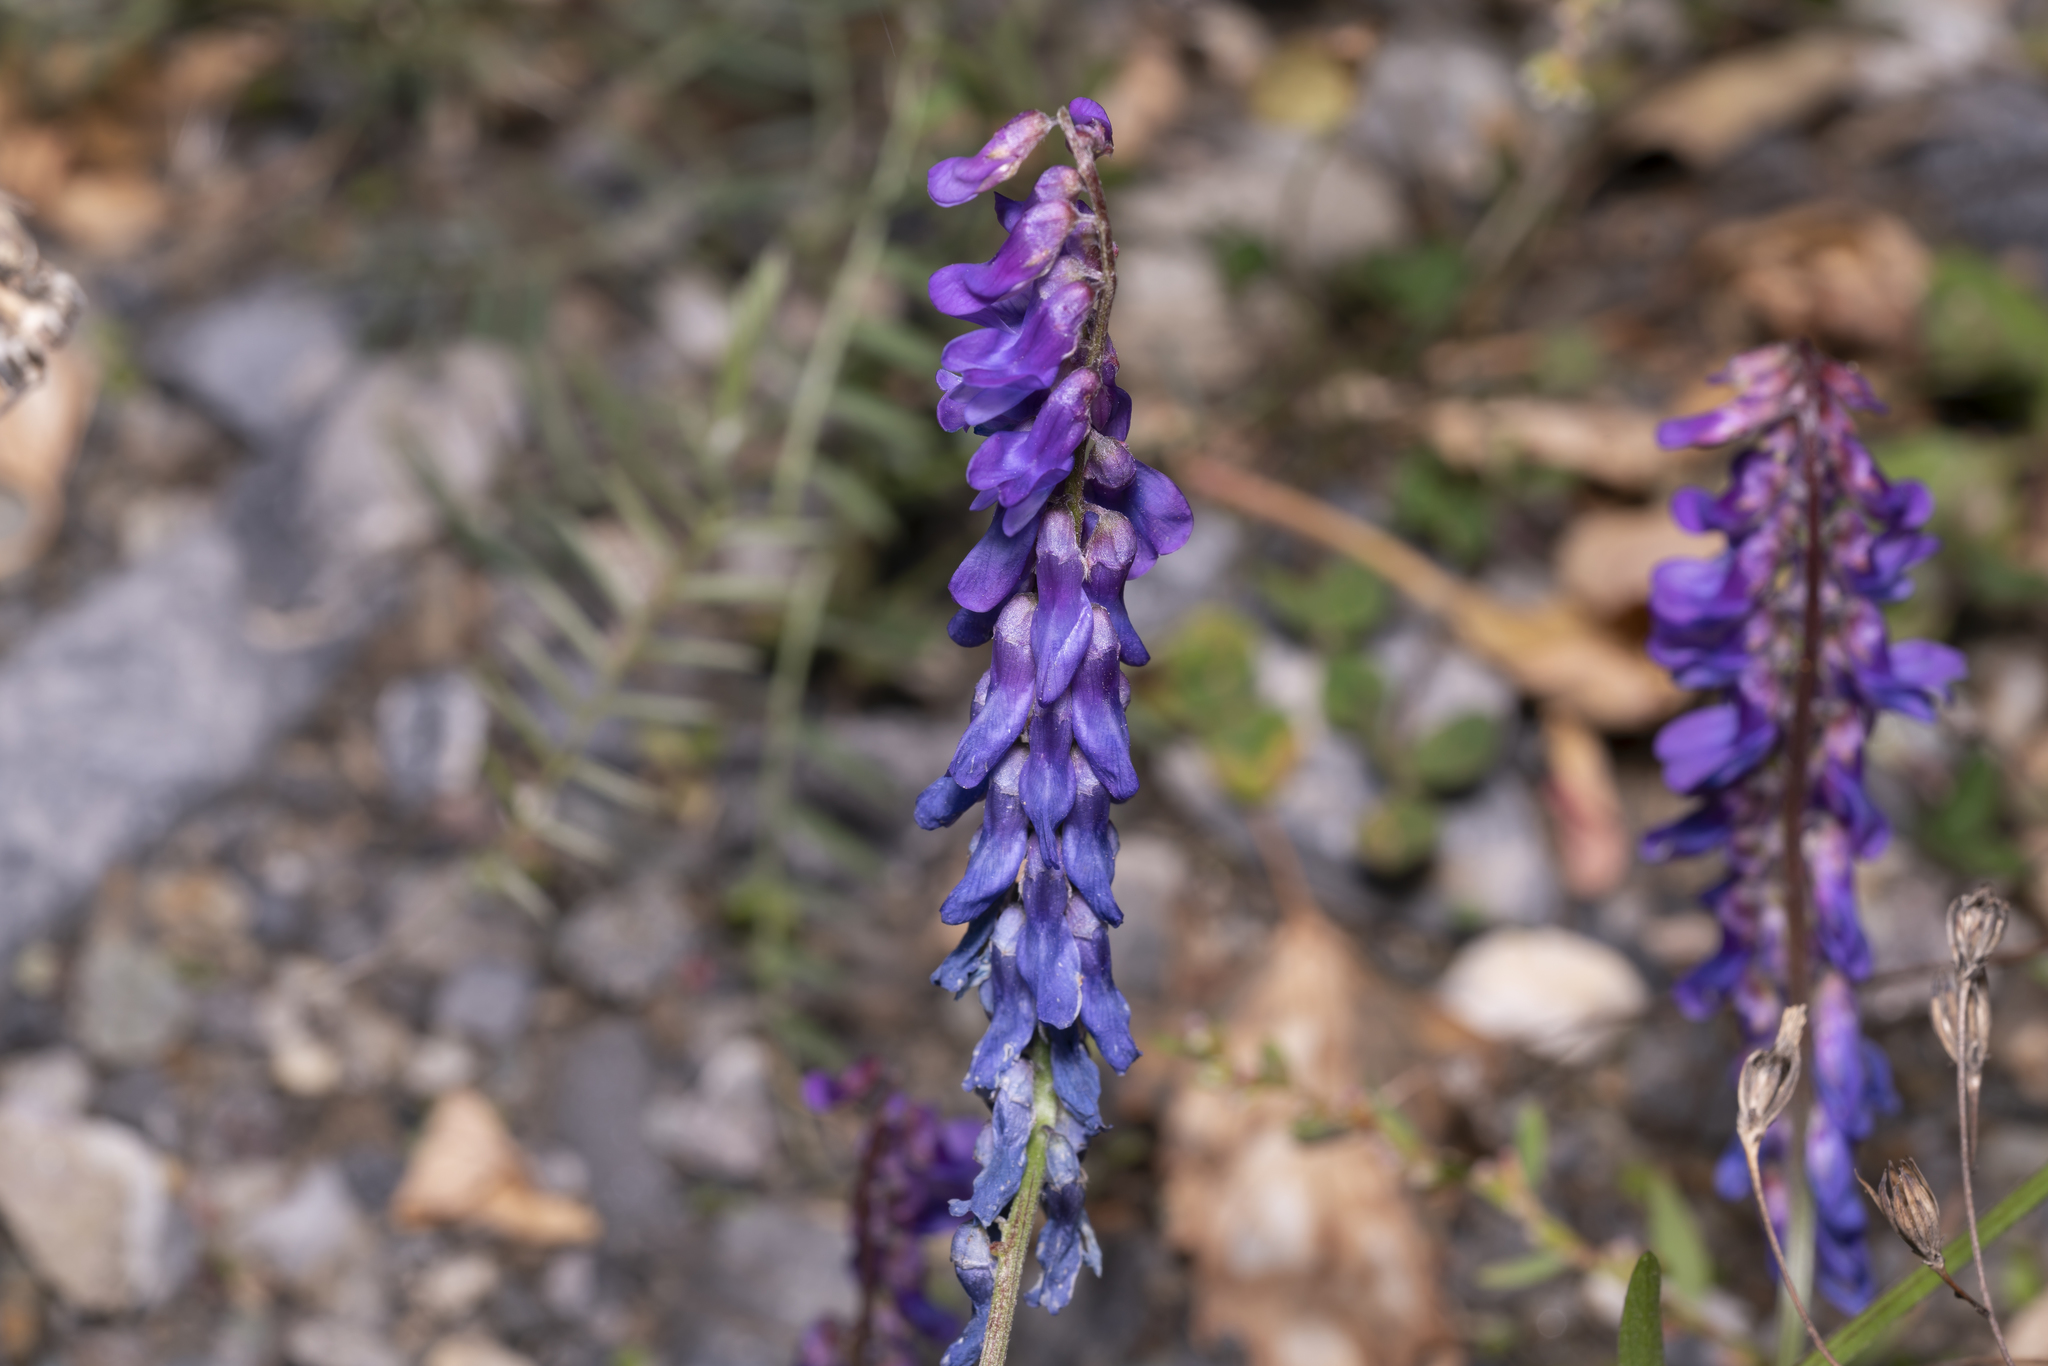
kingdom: Plantae
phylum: Tracheophyta
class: Magnoliopsida
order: Fabales
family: Fabaceae
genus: Vicia
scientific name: Vicia cracca
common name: Bird vetch
